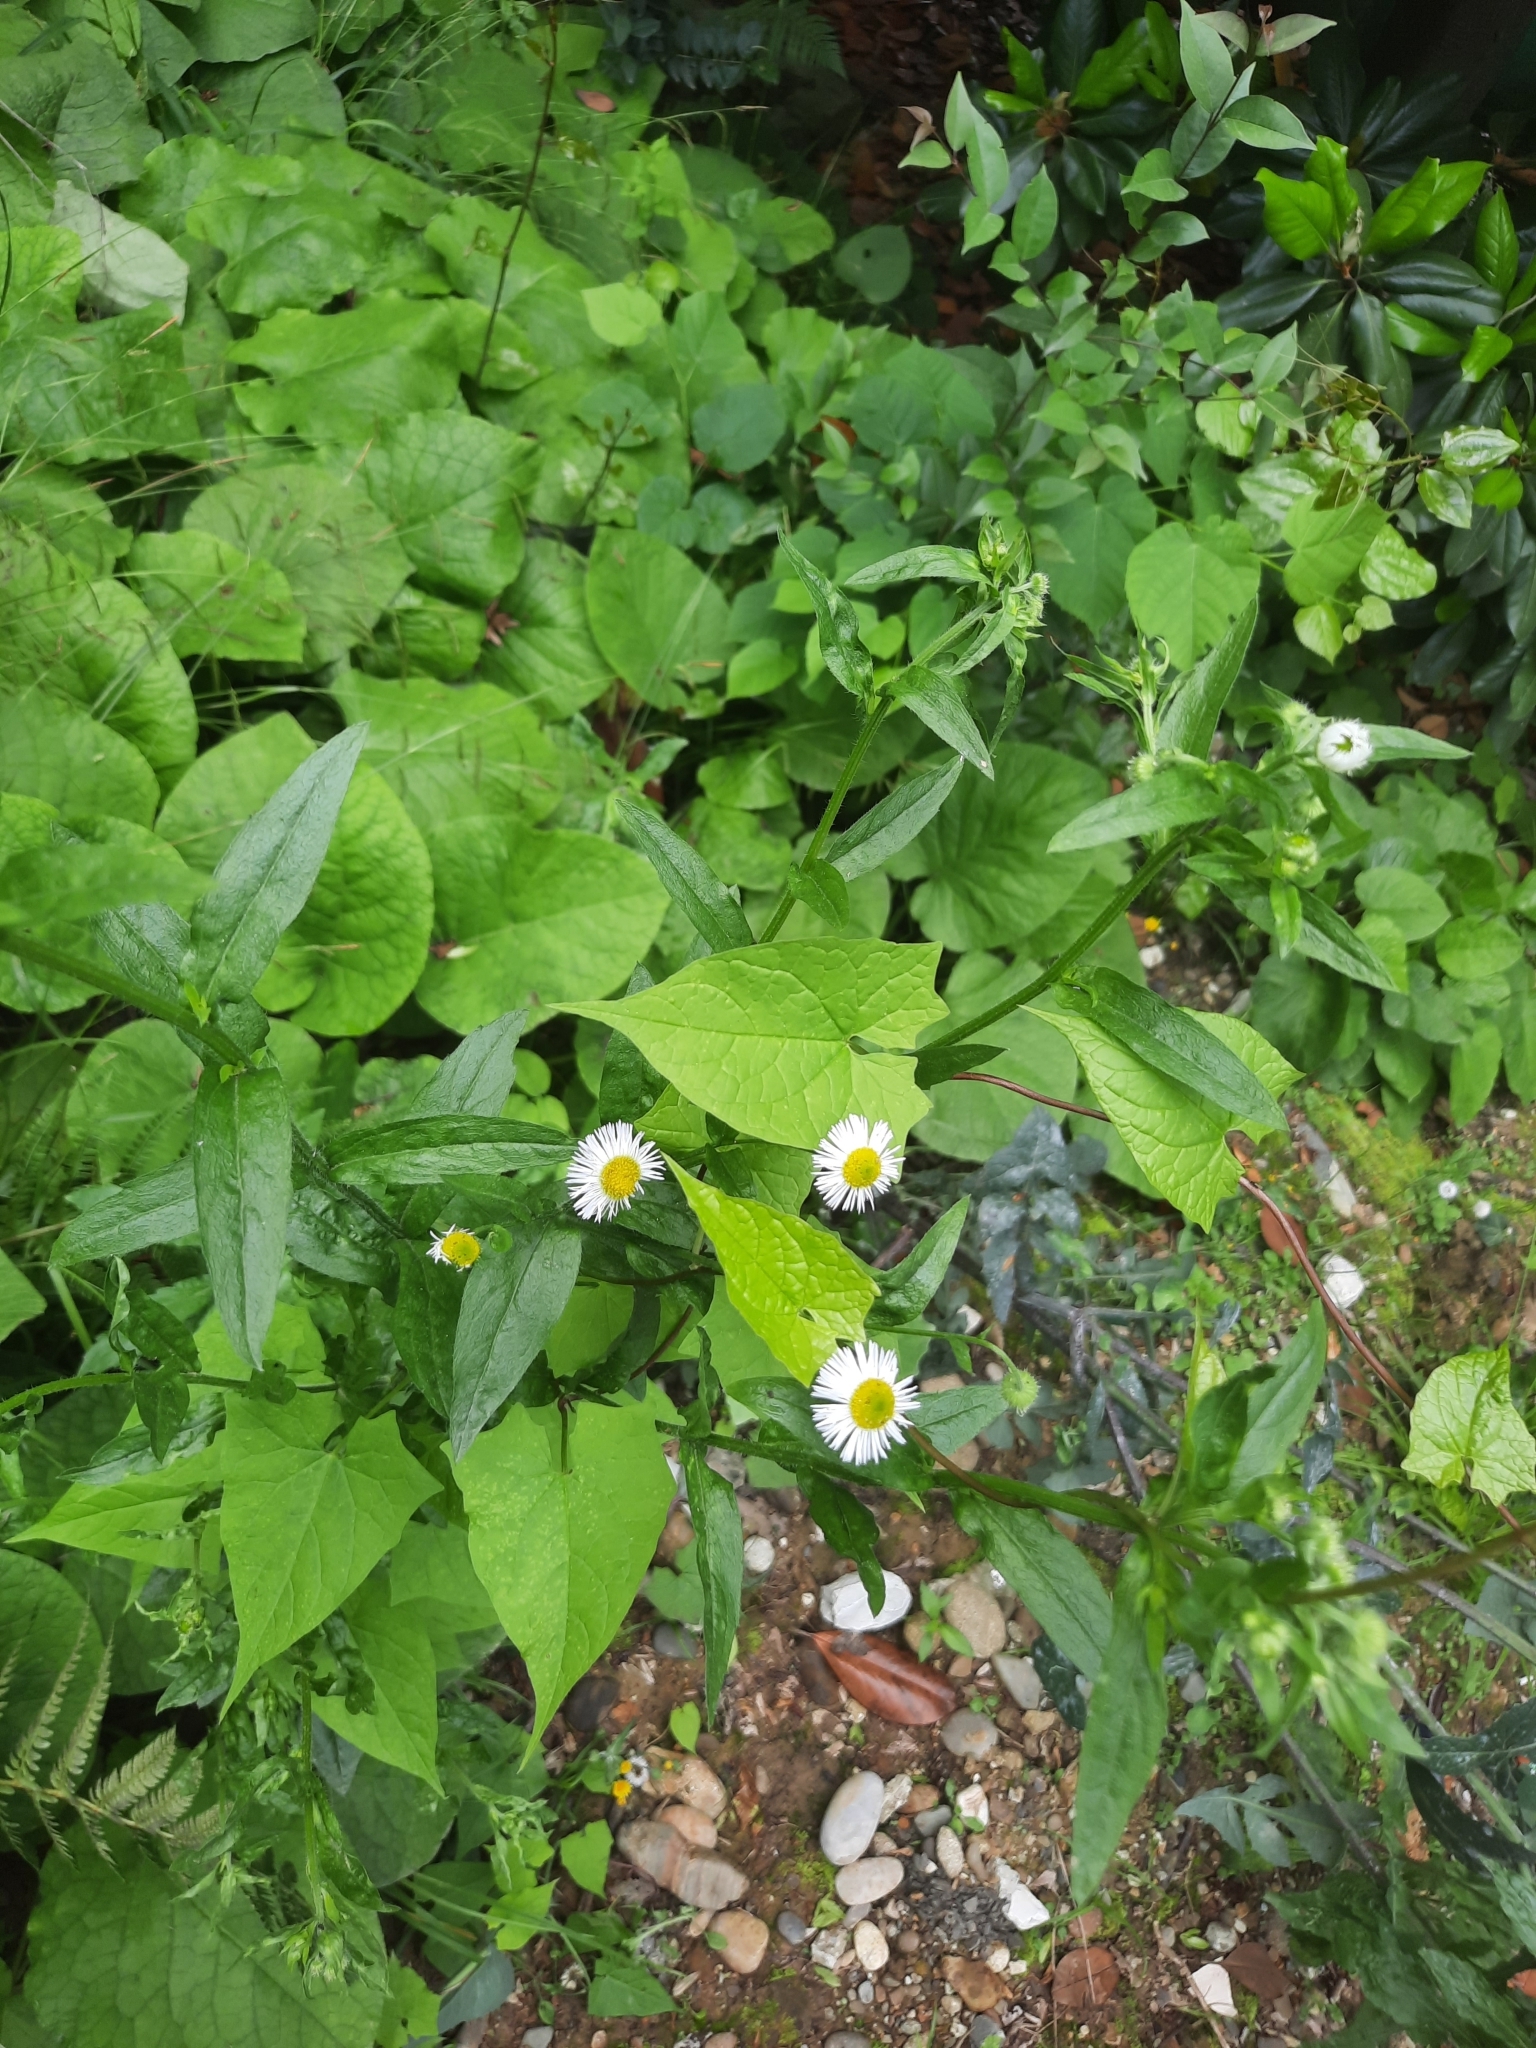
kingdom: Plantae
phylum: Tracheophyta
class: Magnoliopsida
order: Asterales
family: Asteraceae
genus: Erigeron
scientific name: Erigeron annuus
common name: Tall fleabane
